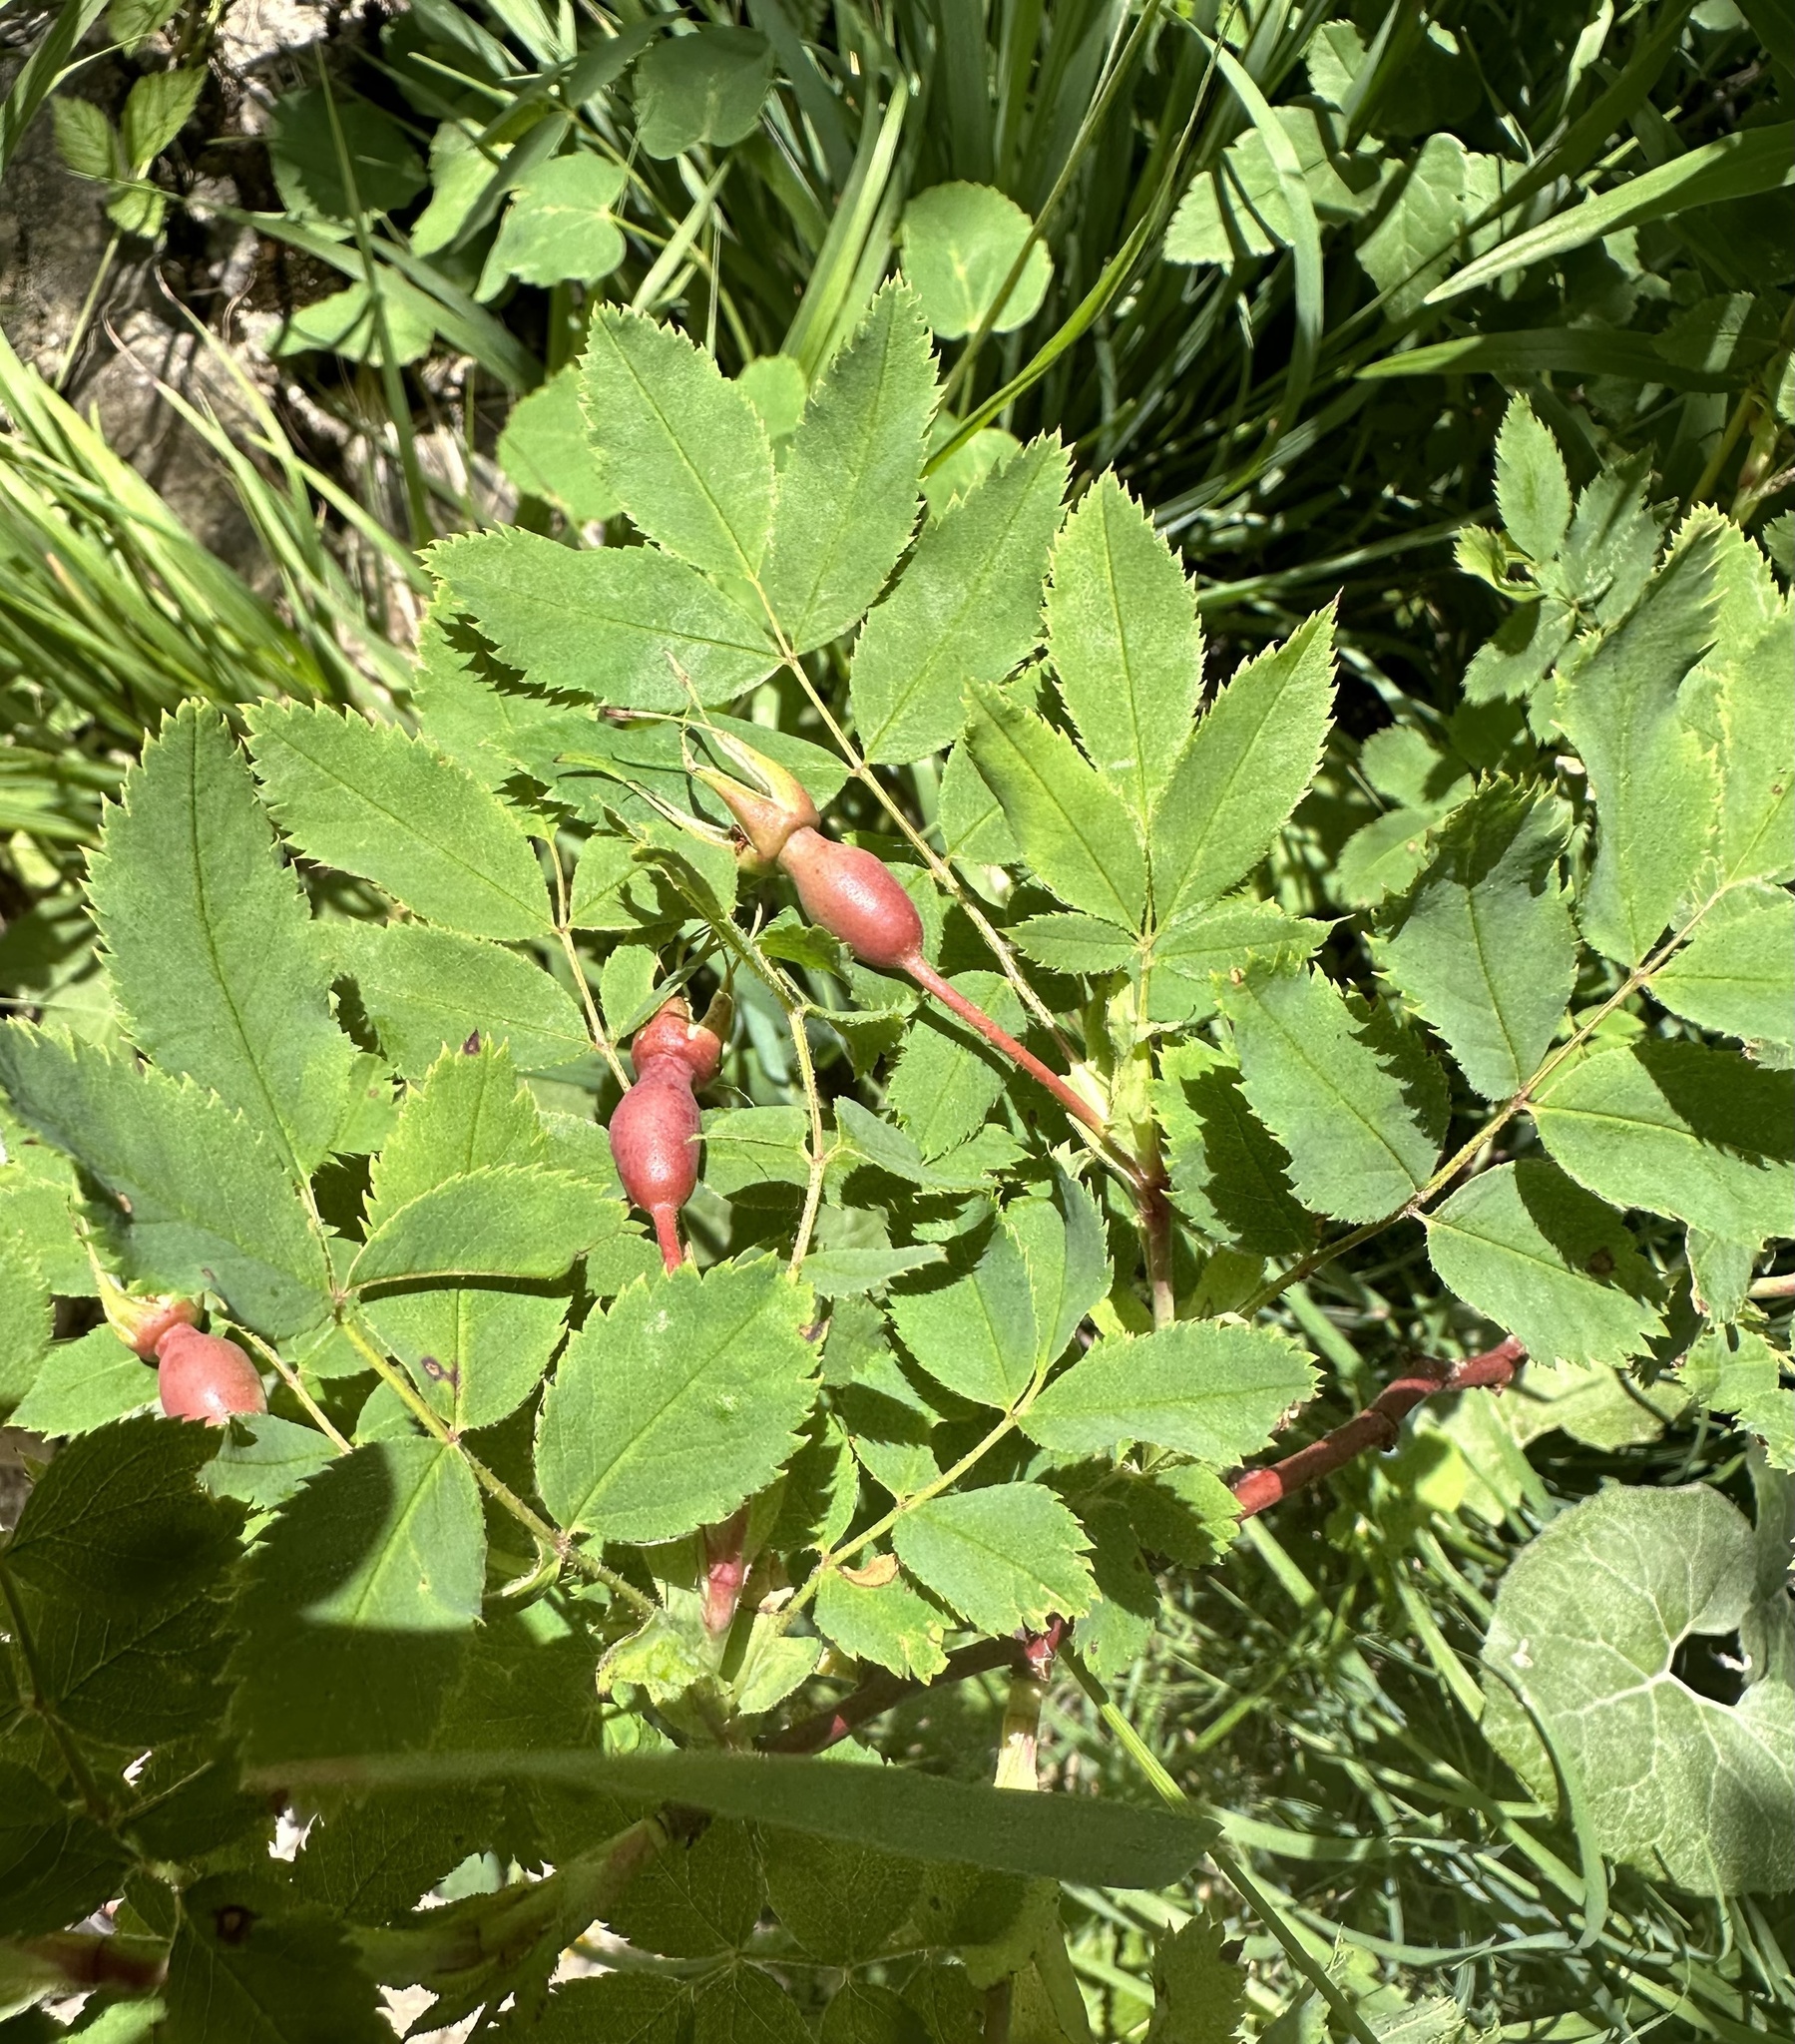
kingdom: Plantae
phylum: Tracheophyta
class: Magnoliopsida
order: Rosales
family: Rosaceae
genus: Rosa
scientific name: Rosa pendulina
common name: Alpine rose
